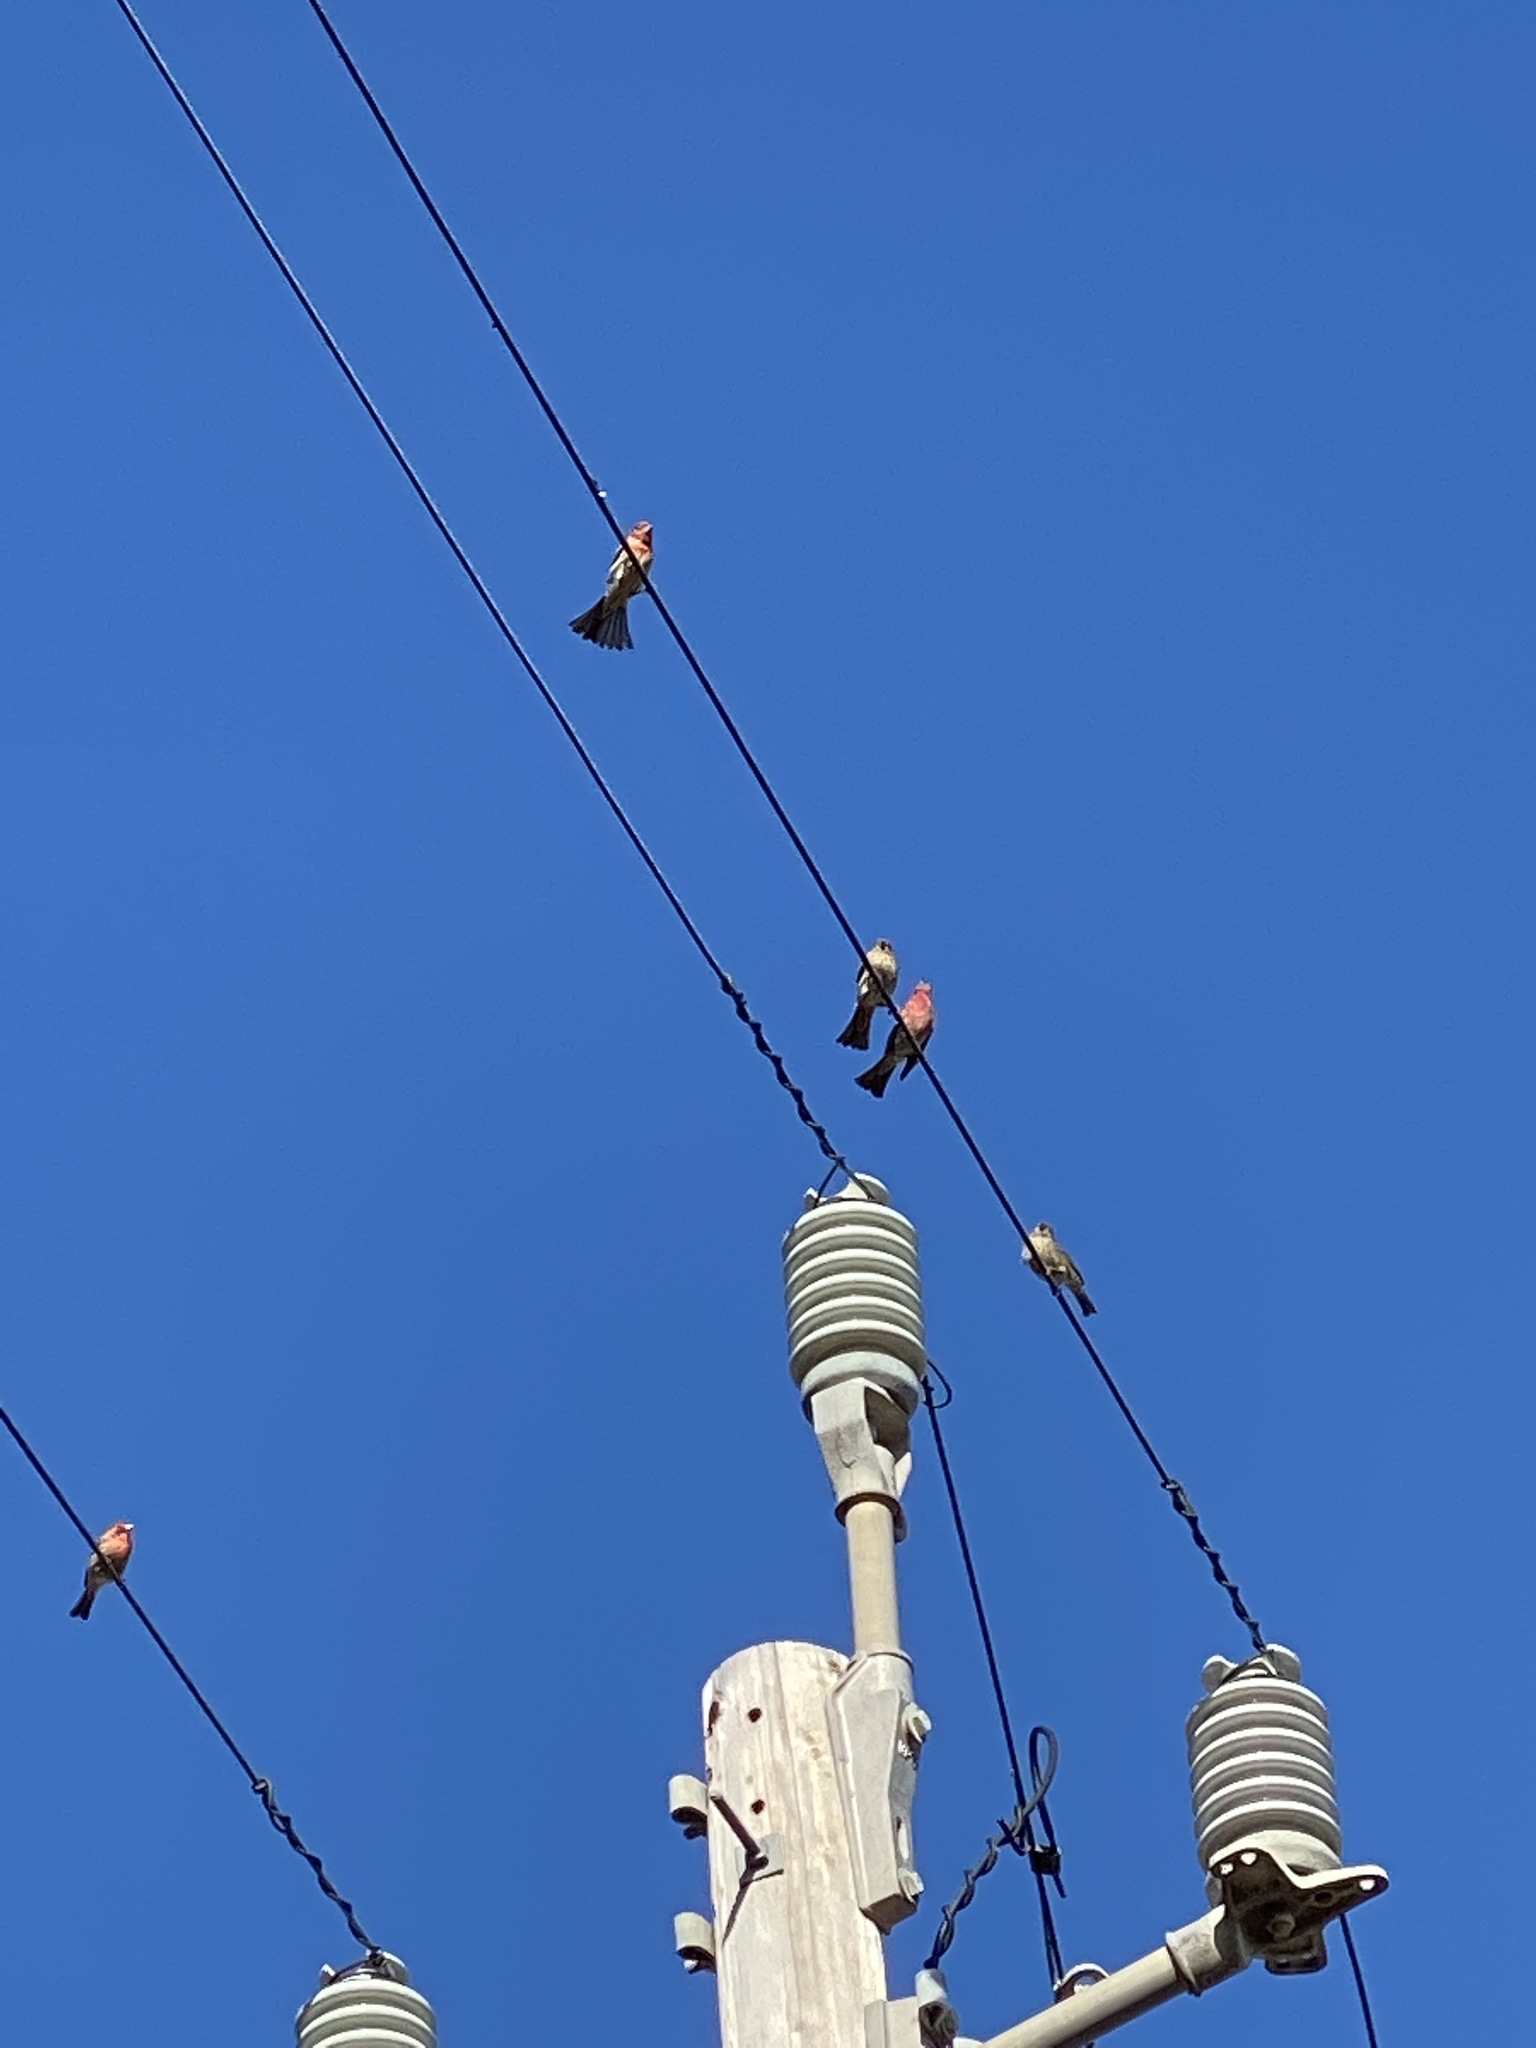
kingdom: Animalia
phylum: Chordata
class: Aves
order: Passeriformes
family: Fringillidae
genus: Haemorhous
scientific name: Haemorhous mexicanus
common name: House finch
